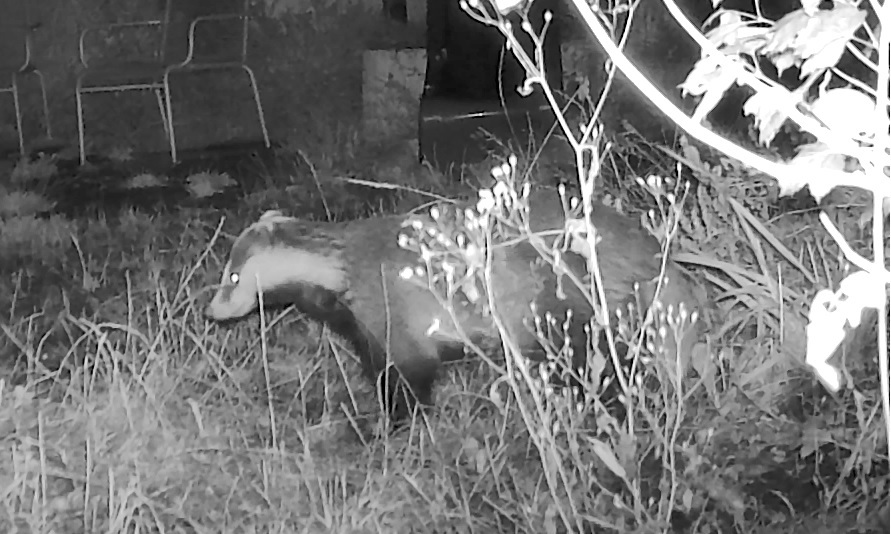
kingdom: Animalia
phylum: Chordata
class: Mammalia
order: Carnivora
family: Mustelidae
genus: Meles
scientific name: Meles meles
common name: Eurasian badger
